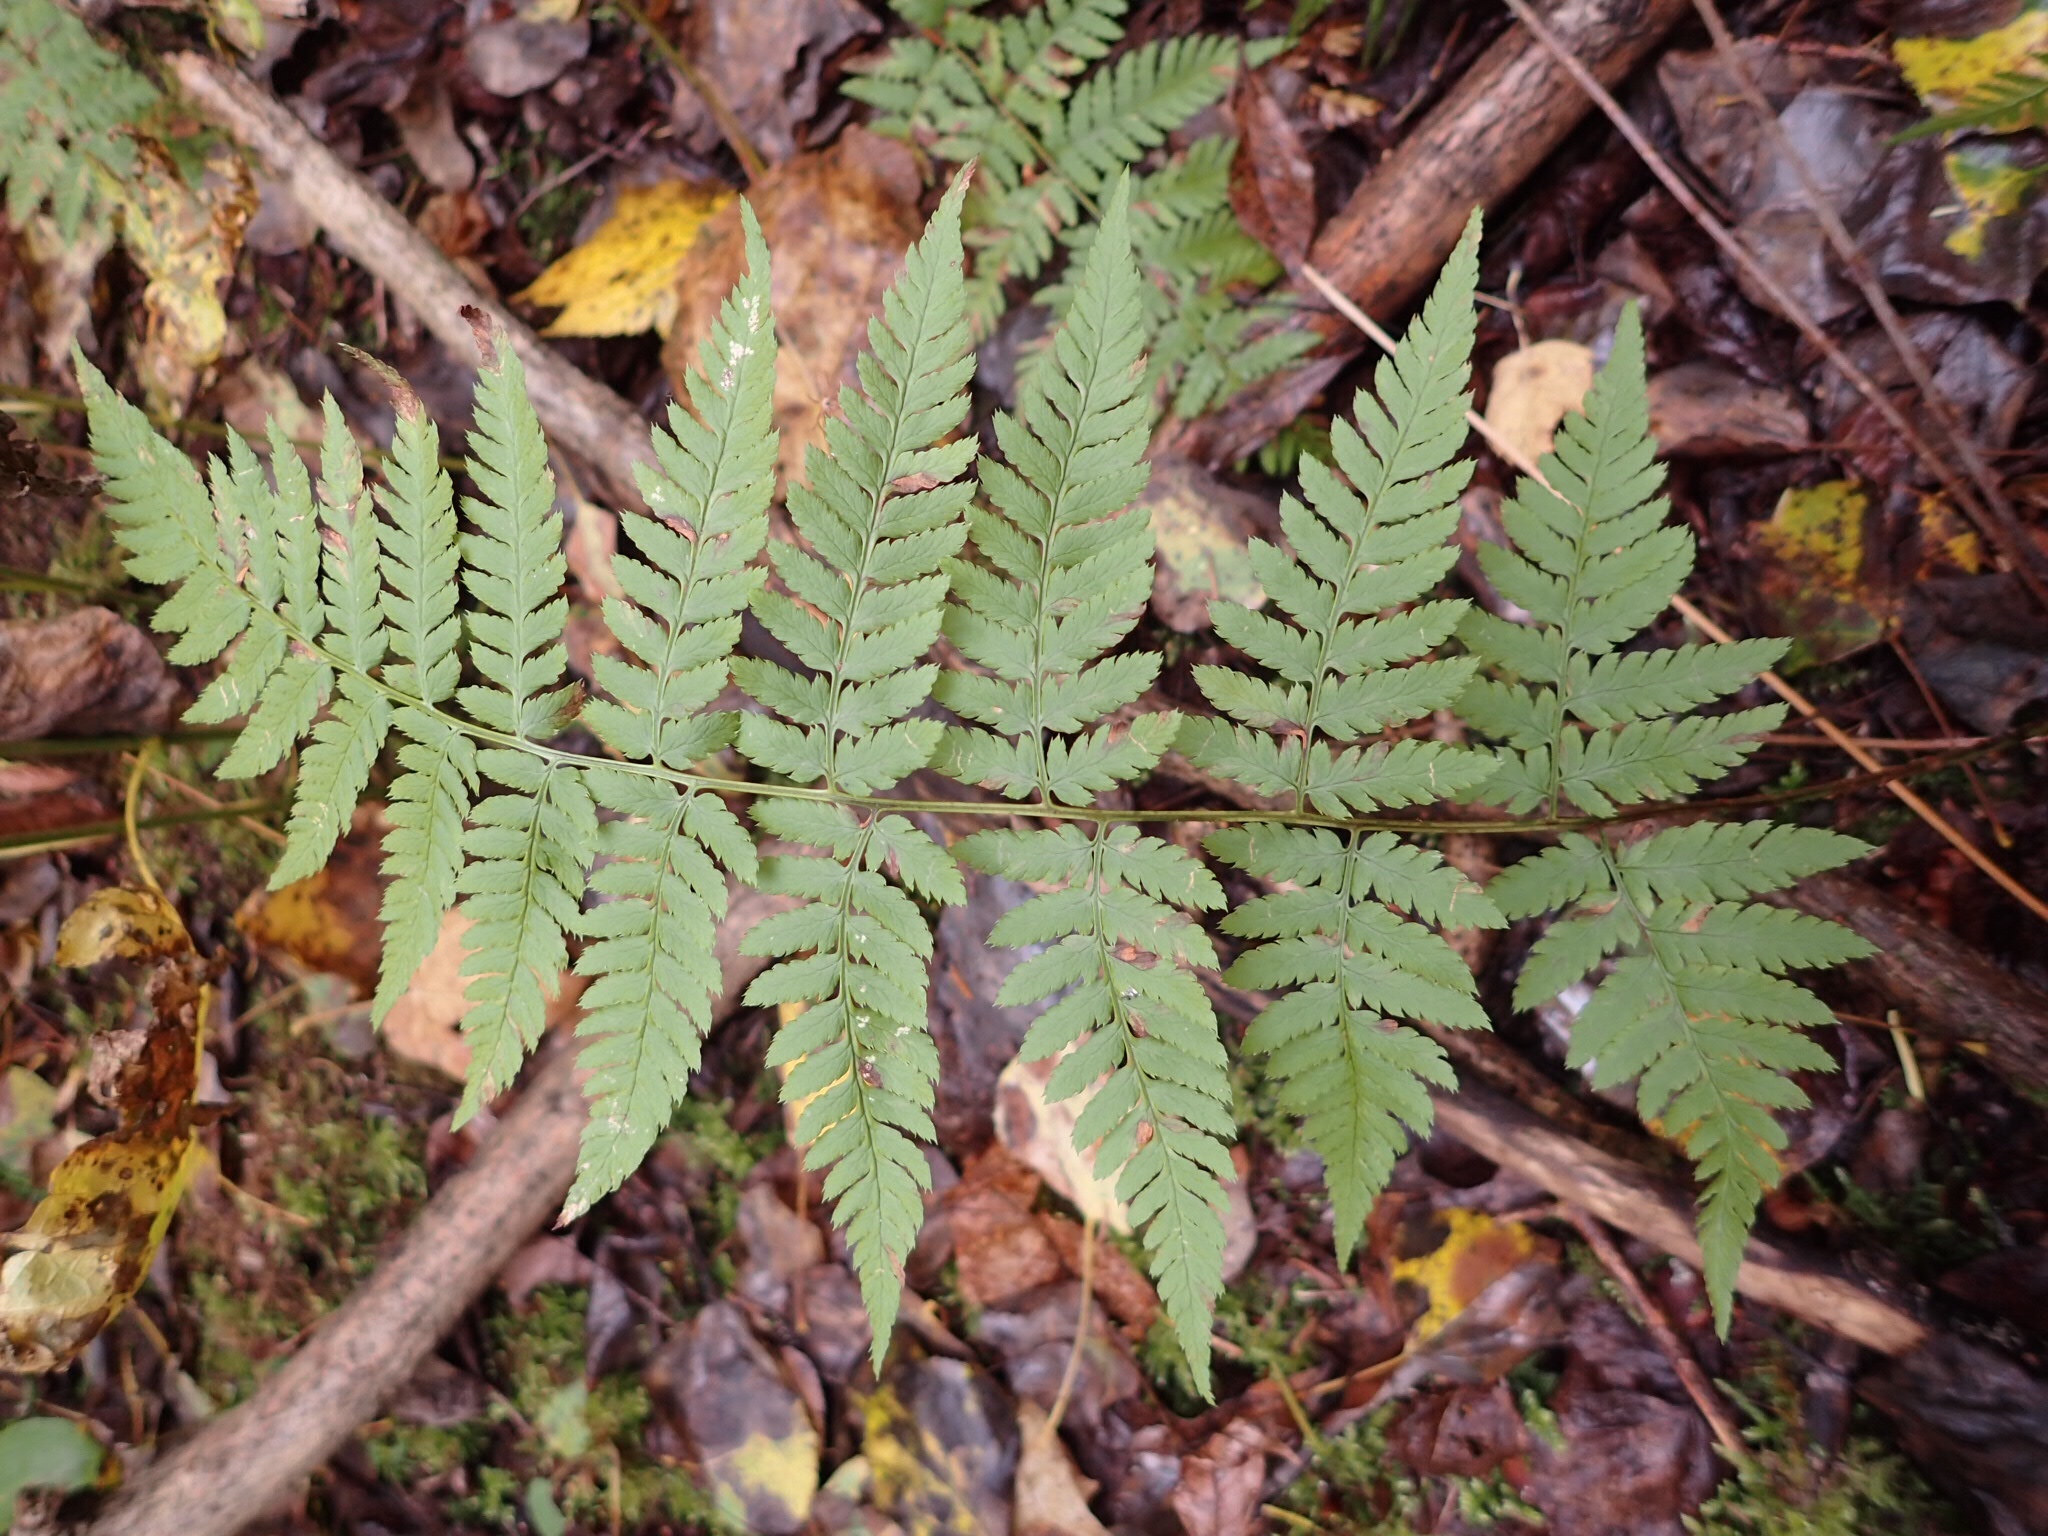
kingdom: Plantae
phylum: Tracheophyta
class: Polypodiopsida
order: Polypodiales
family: Dryopteridaceae
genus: Dryopteris
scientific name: Dryopteris carthusiana
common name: Narrow buckler-fern
